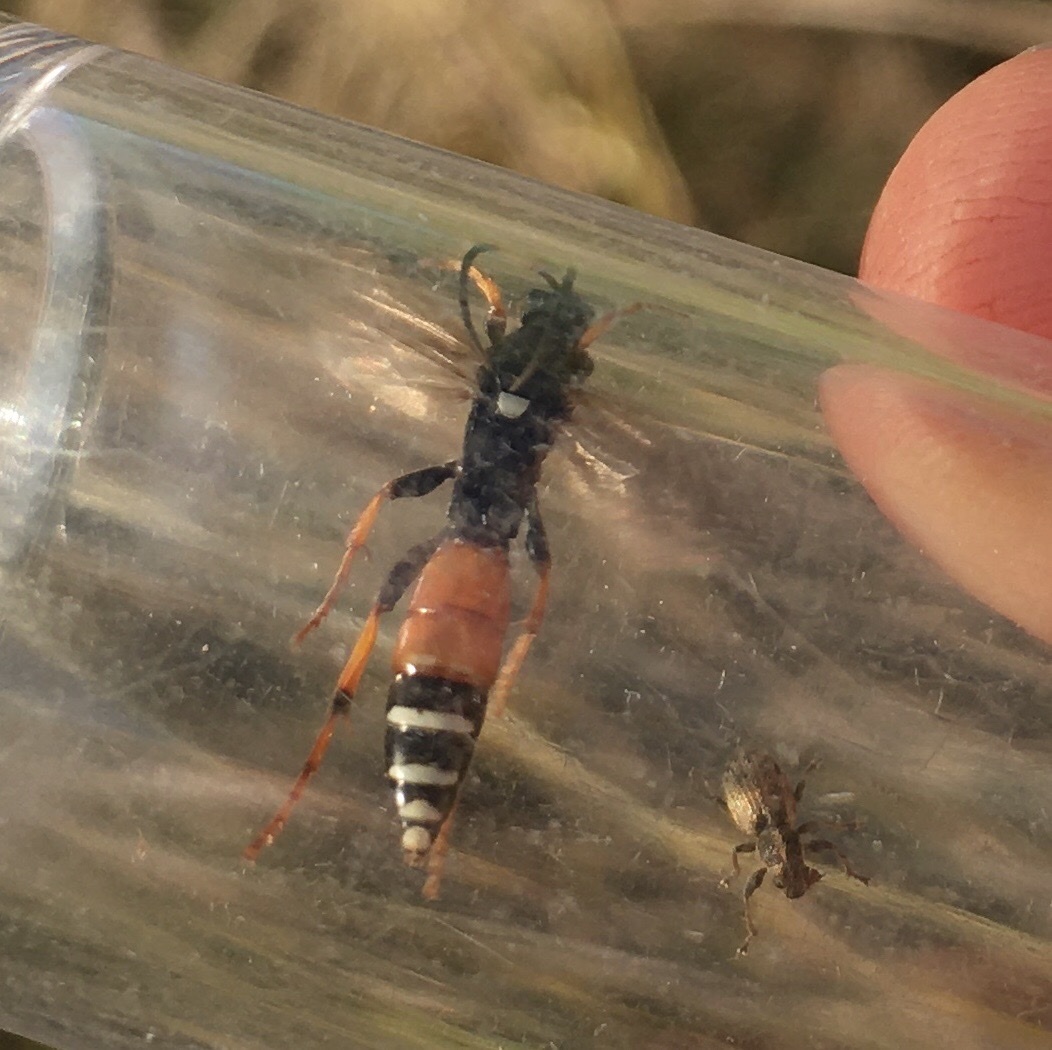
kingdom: Animalia
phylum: Arthropoda
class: Insecta
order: Hymenoptera
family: Ichneumonidae
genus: Spilichneumon
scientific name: Spilichneumon occisorius
